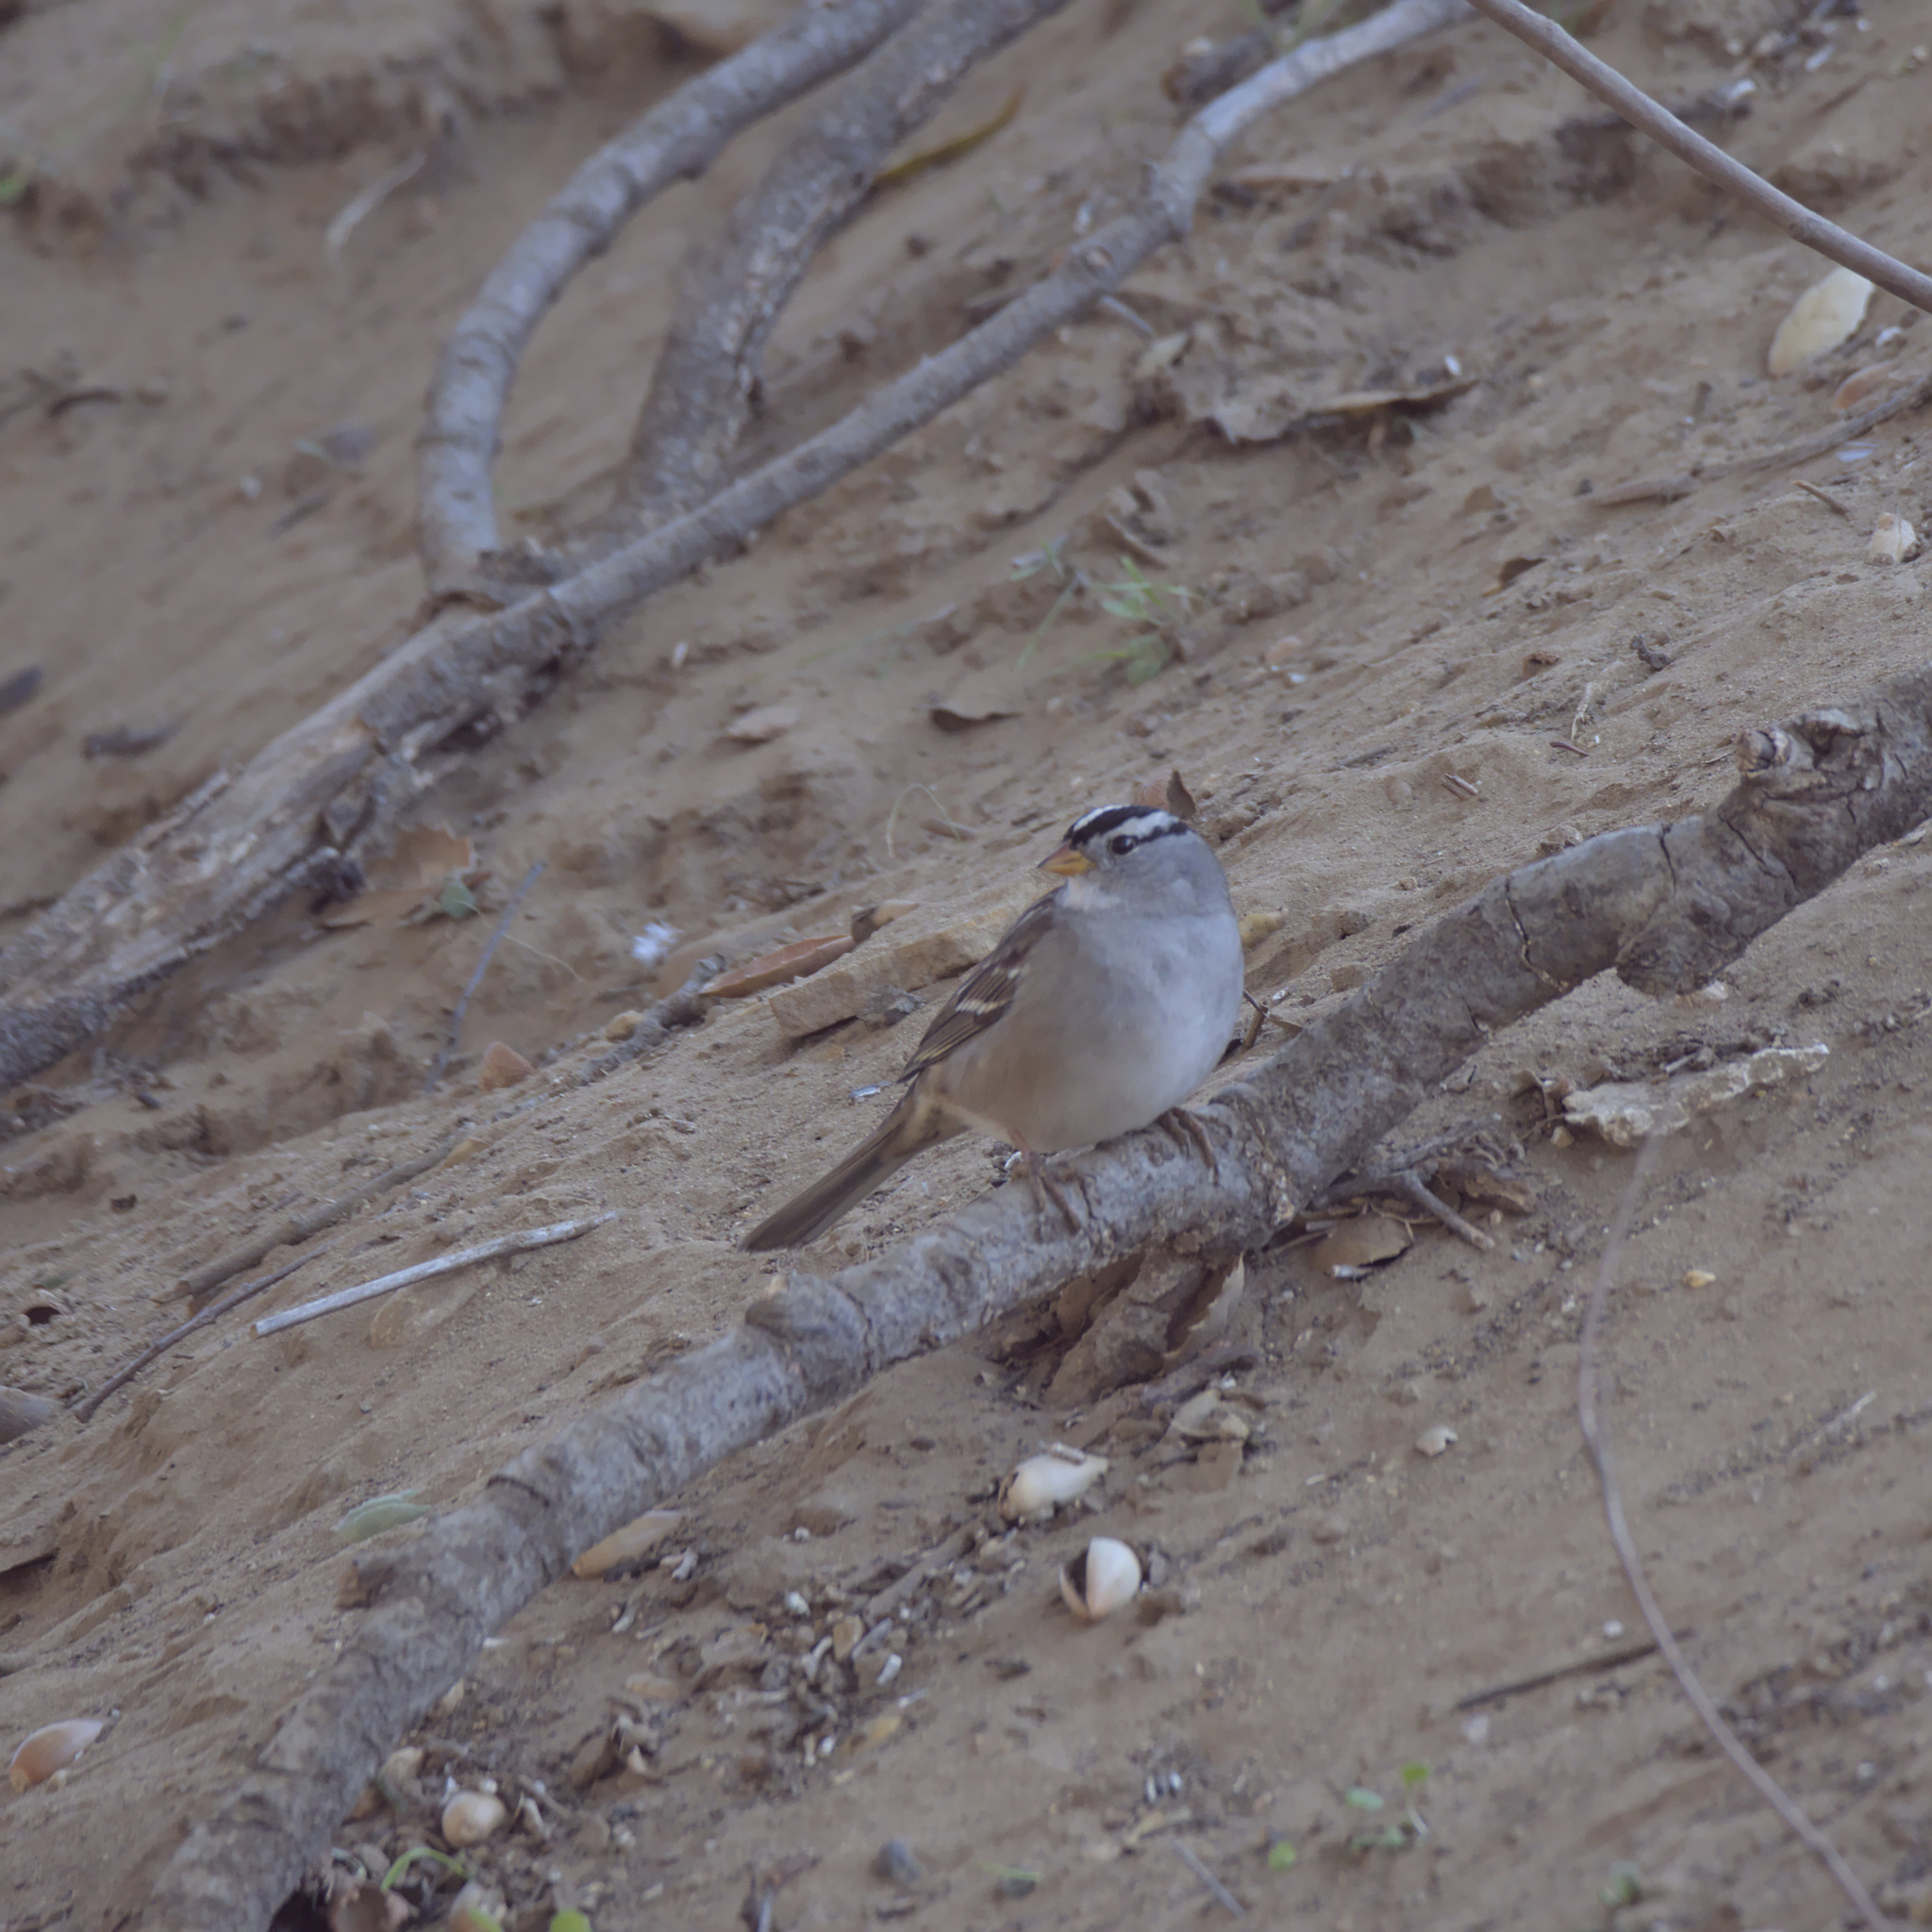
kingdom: Animalia
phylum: Chordata
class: Aves
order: Passeriformes
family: Passerellidae
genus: Zonotrichia
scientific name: Zonotrichia leucophrys
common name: White-crowned sparrow
